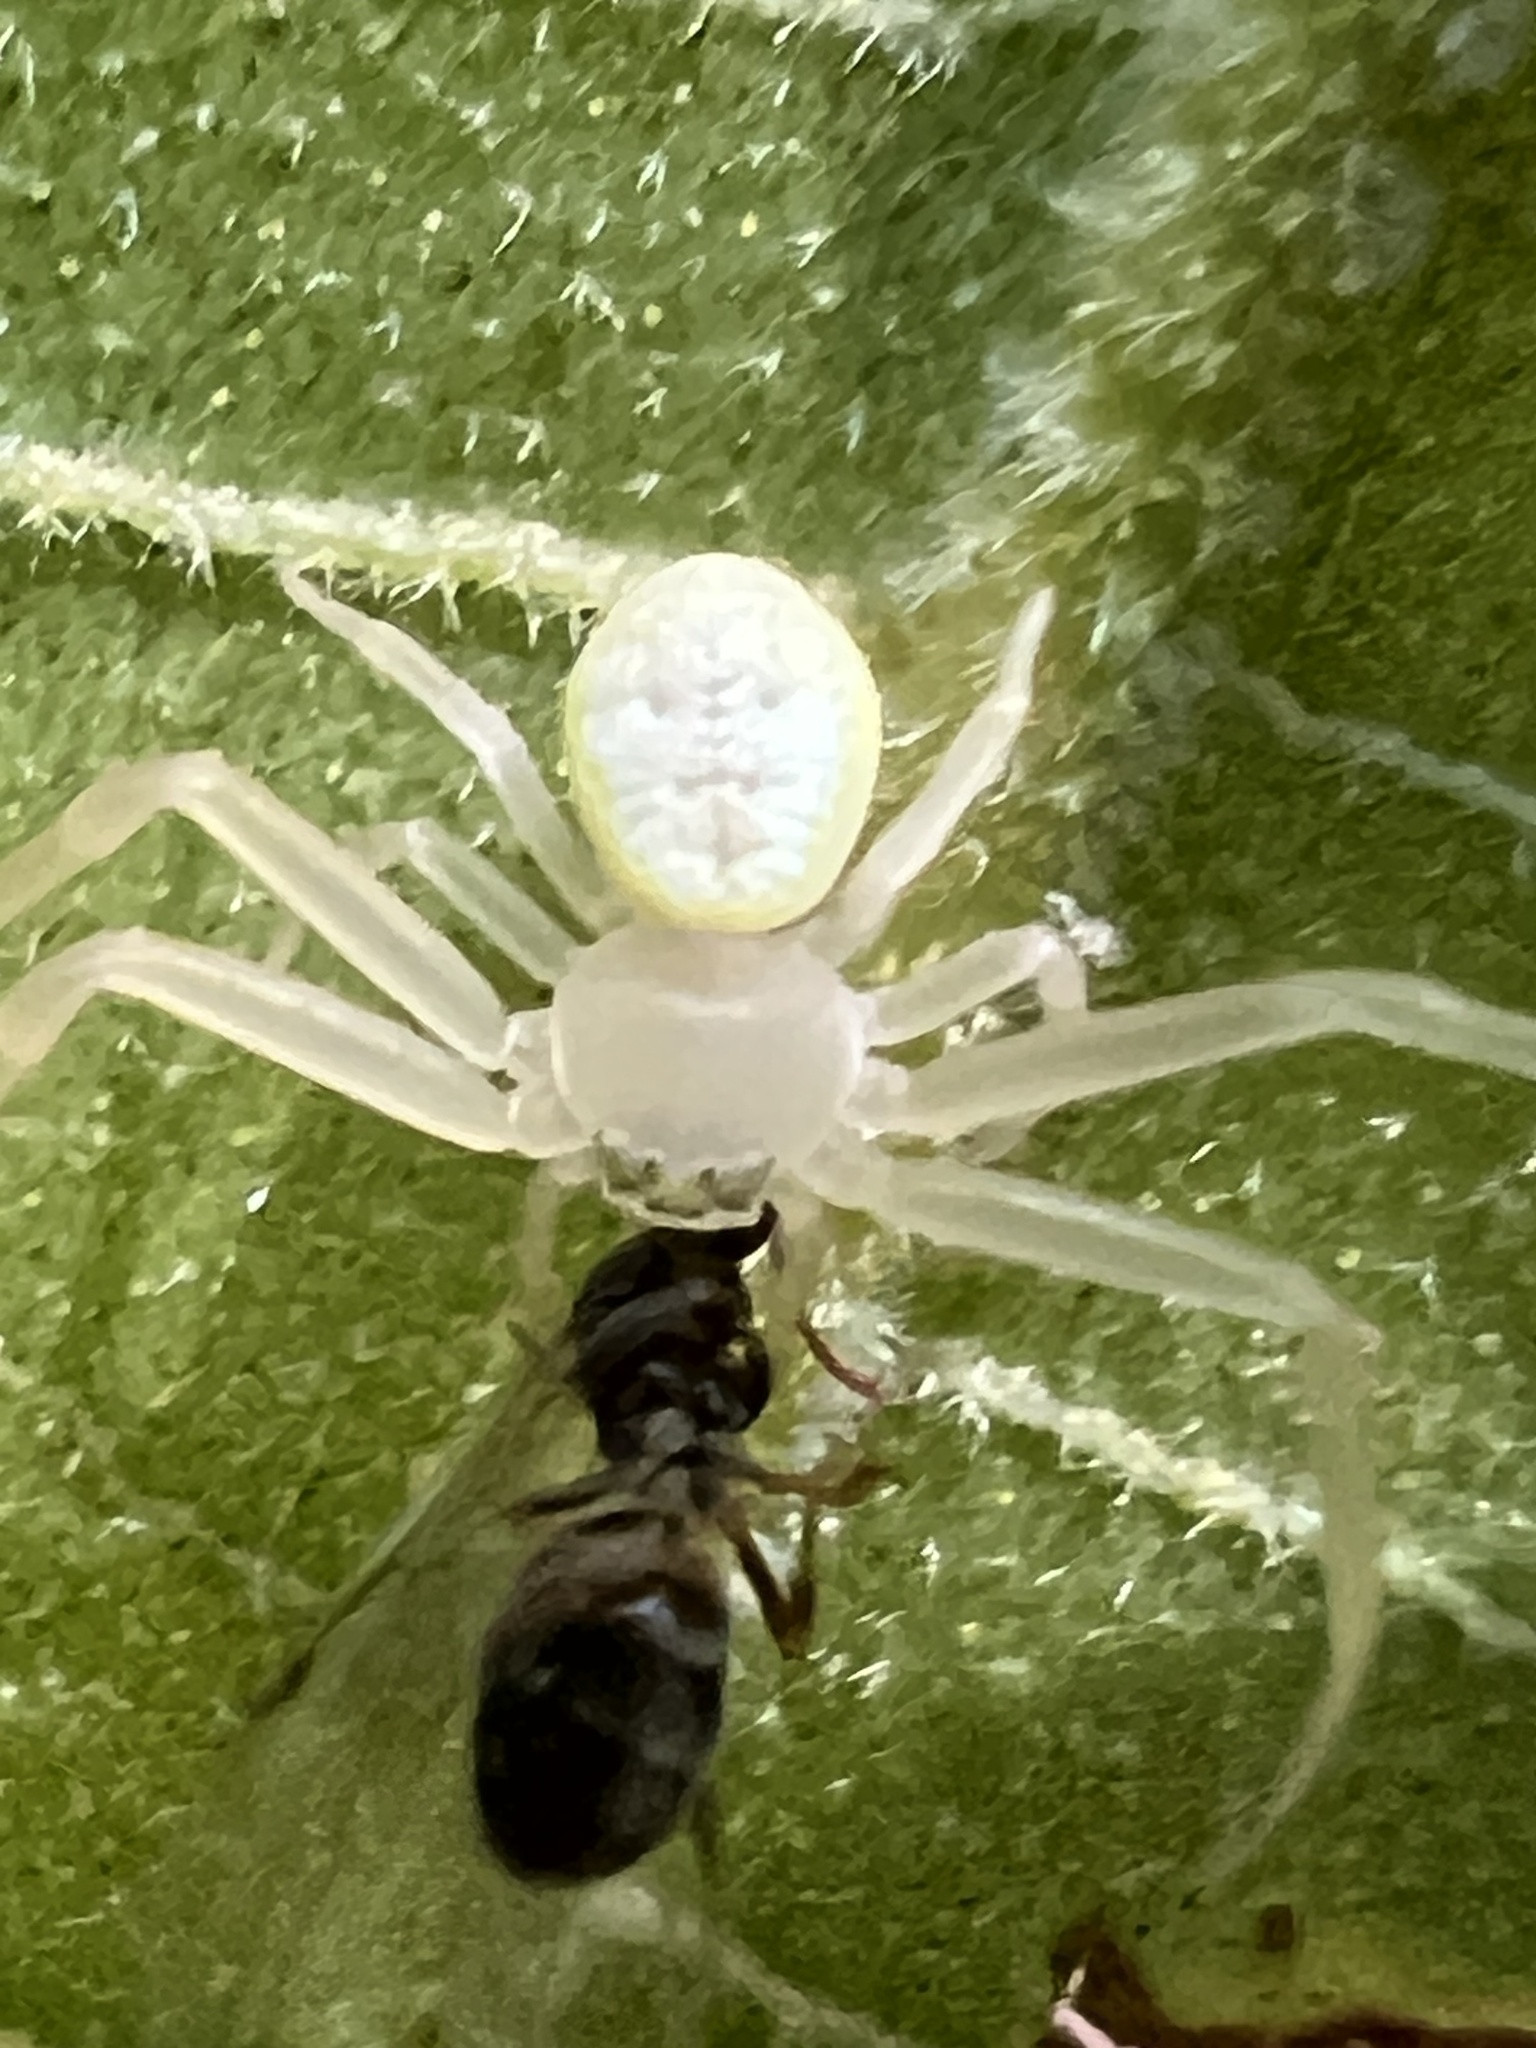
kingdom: Animalia
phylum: Arthropoda
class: Arachnida
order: Araneae
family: Thomisidae
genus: Misumessus
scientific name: Misumessus oblongus
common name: American green crab spider
